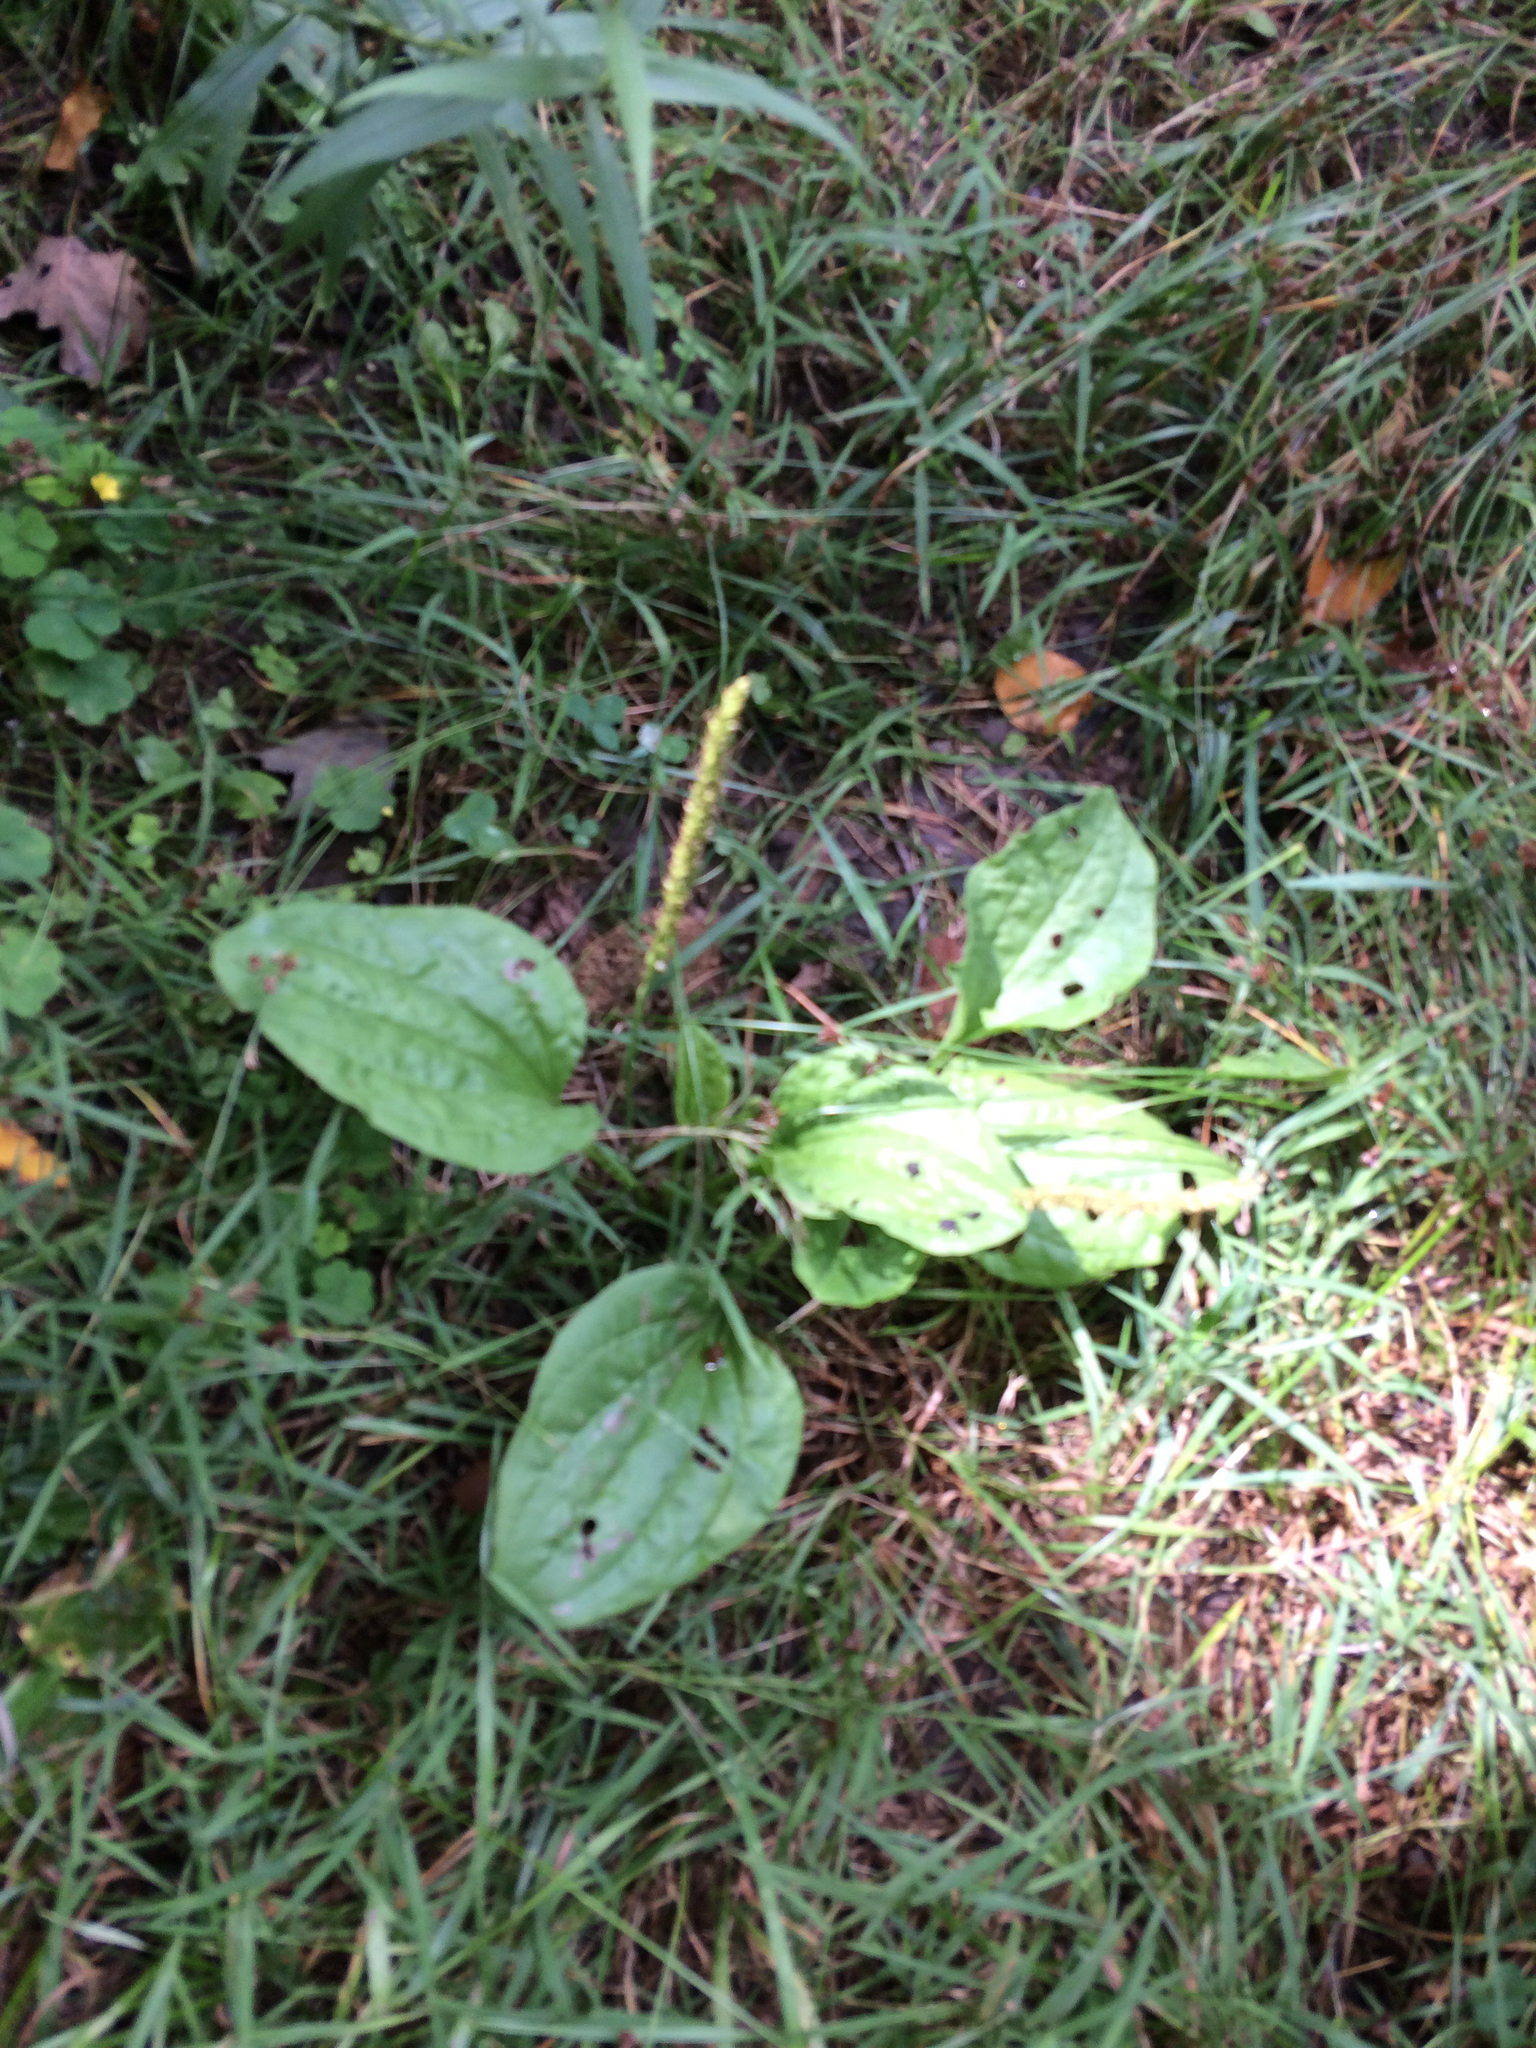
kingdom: Plantae
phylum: Tracheophyta
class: Magnoliopsida
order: Lamiales
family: Plantaginaceae
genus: Plantago
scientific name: Plantago major
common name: Common plantain
